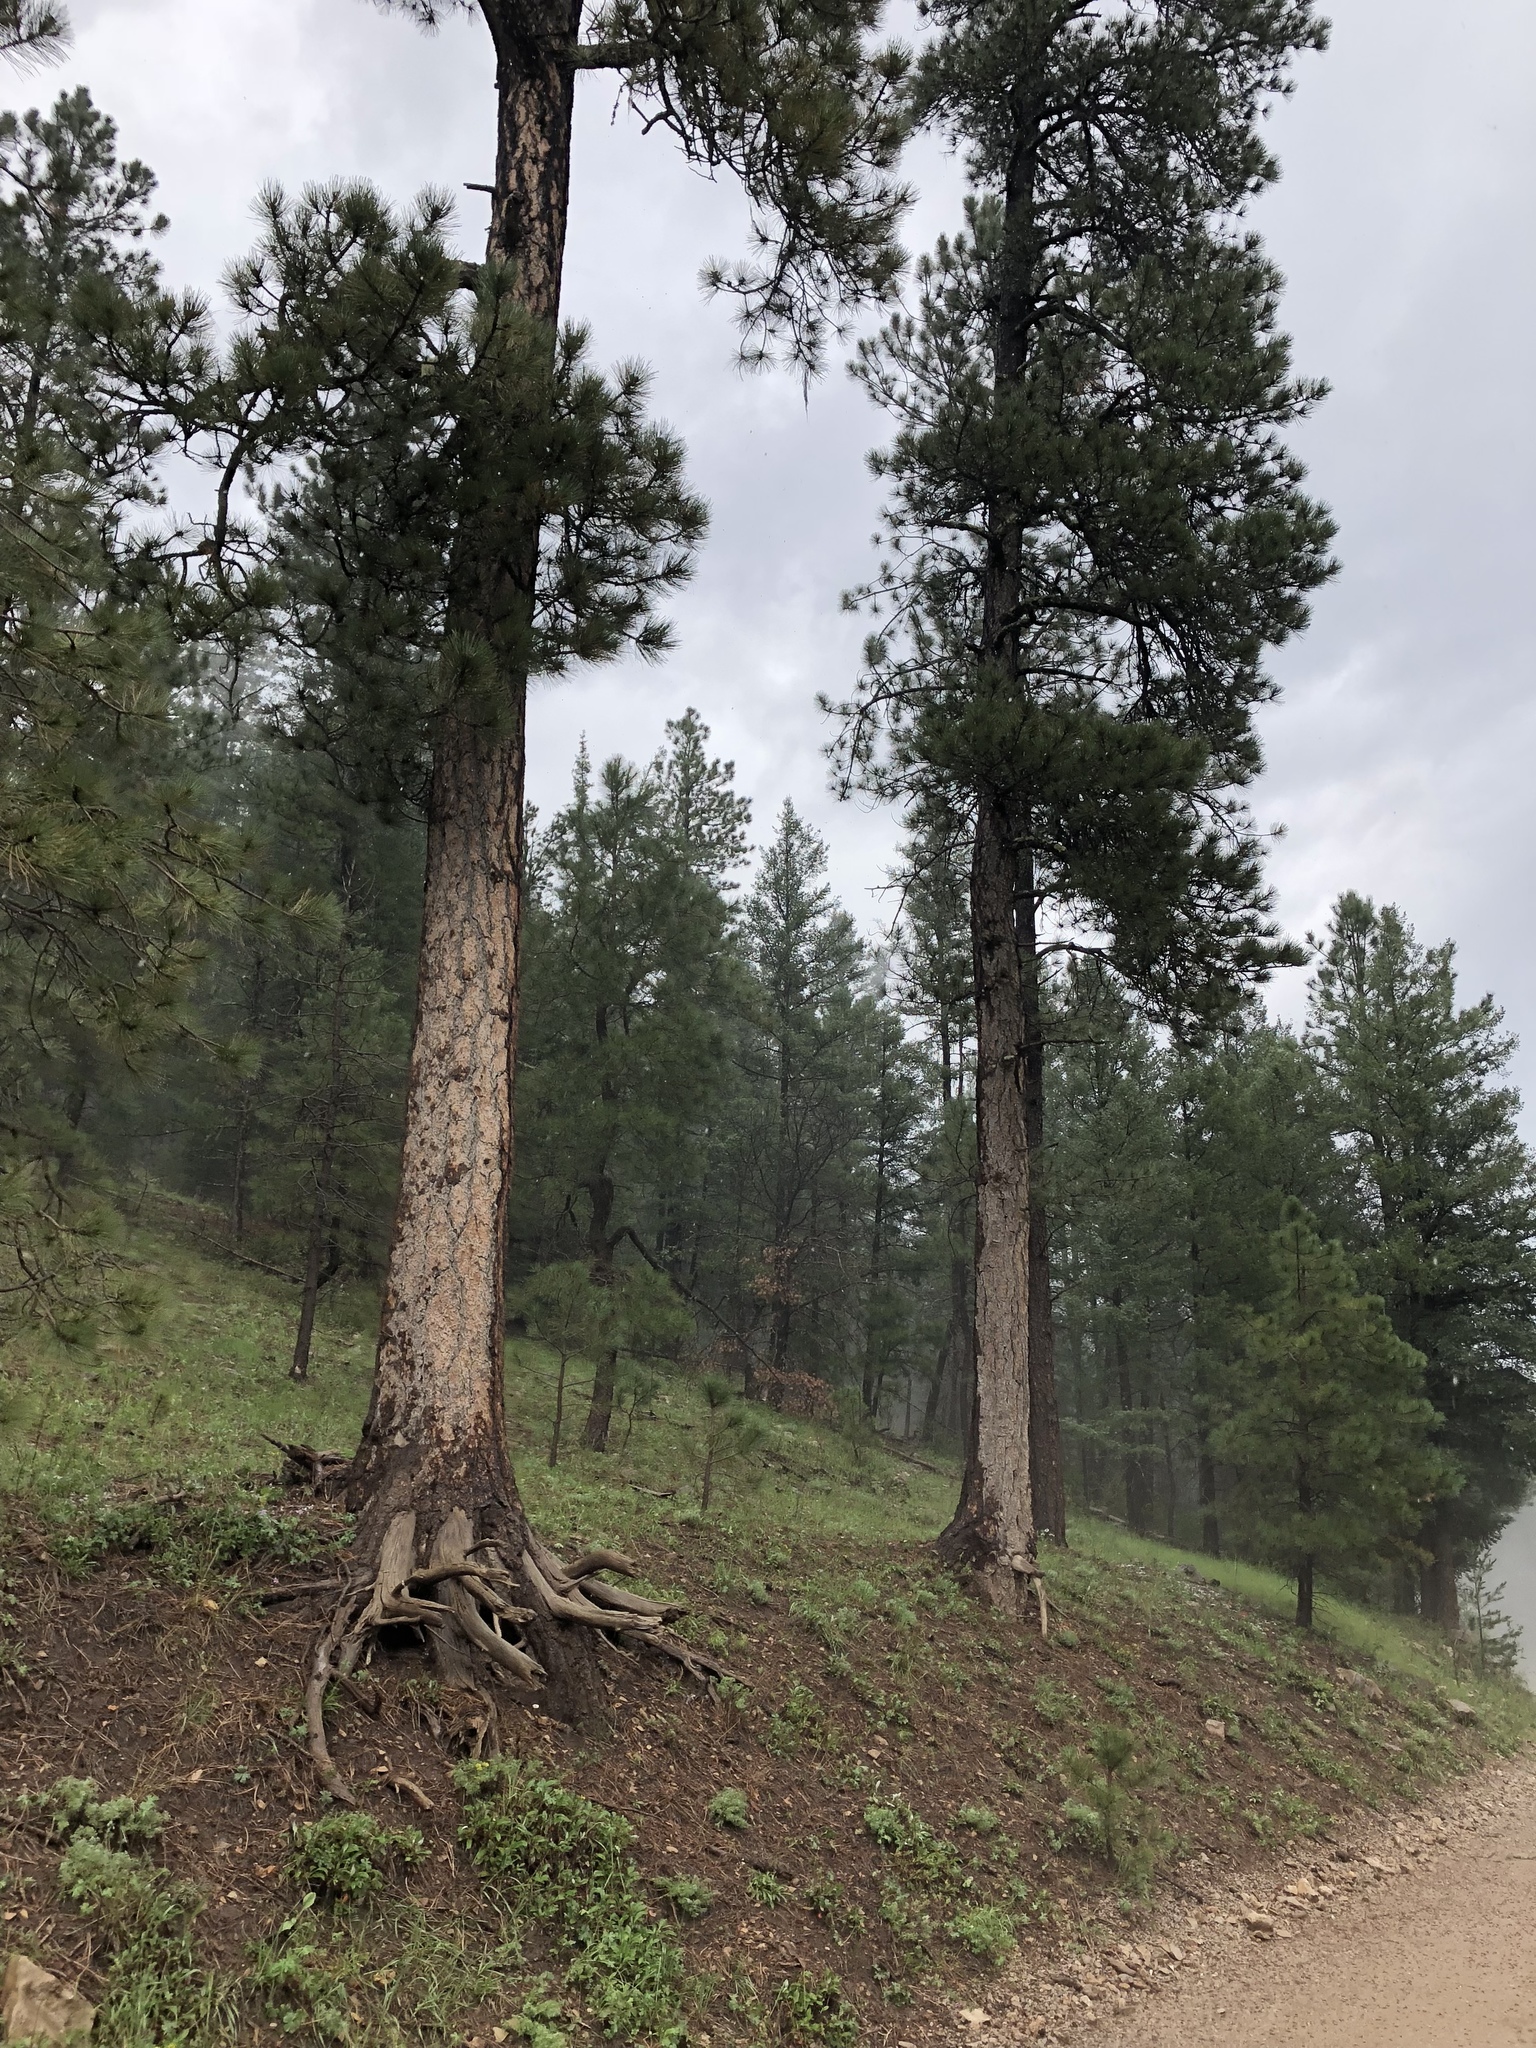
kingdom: Plantae
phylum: Tracheophyta
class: Pinopsida
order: Pinales
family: Pinaceae
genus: Pinus
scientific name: Pinus ponderosa
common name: Western yellow-pine
